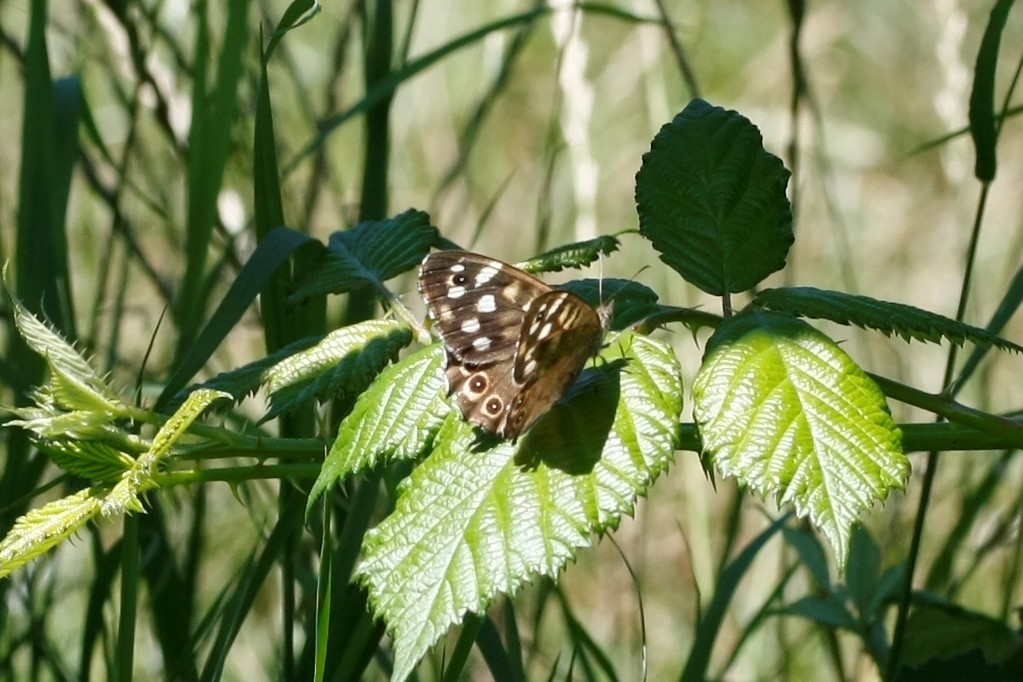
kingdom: Animalia
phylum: Arthropoda
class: Insecta
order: Lepidoptera
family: Nymphalidae
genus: Pararge
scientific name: Pararge aegeria
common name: Speckled wood
